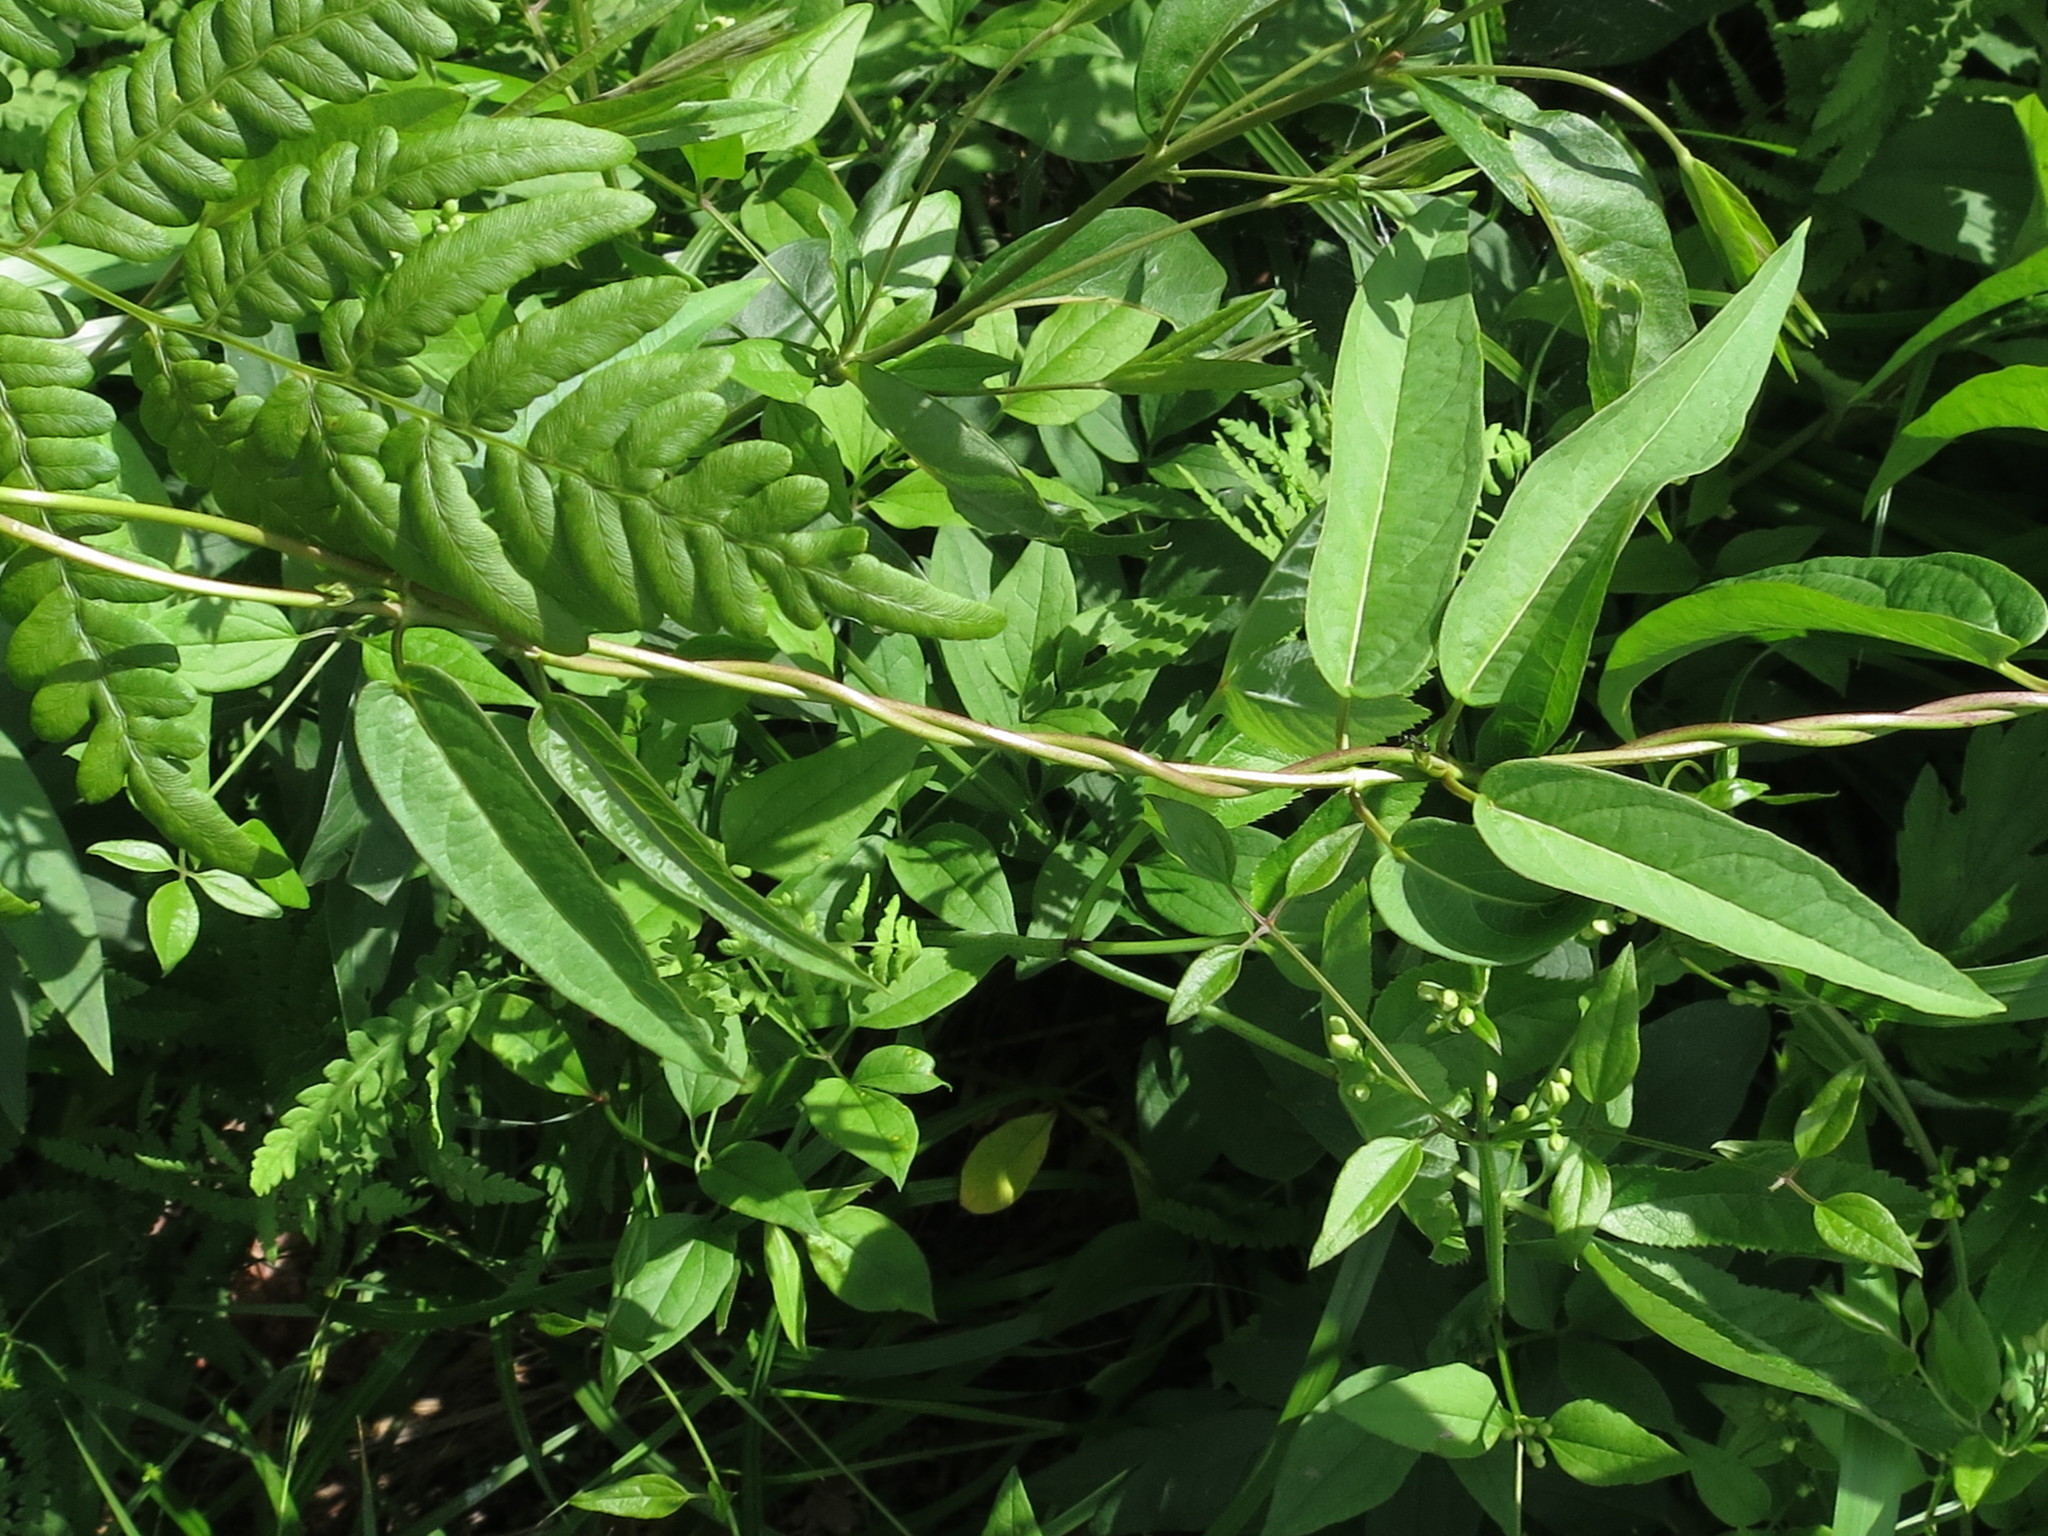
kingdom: Plantae
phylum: Tracheophyta
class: Magnoliopsida
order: Gentianales
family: Apocynaceae
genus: Vincetoxicum
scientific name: Vincetoxicum volubile
